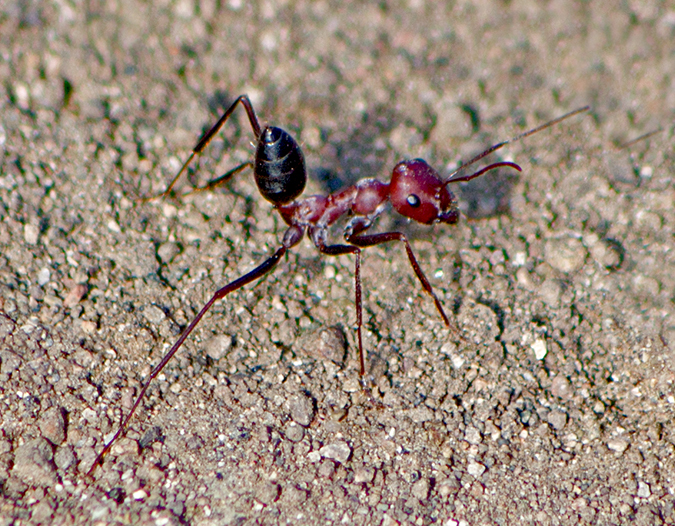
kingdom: Animalia
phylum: Arthropoda
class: Insecta
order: Hymenoptera
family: Formicidae
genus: Cataglyphis
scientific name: Cataglyphis nodus
